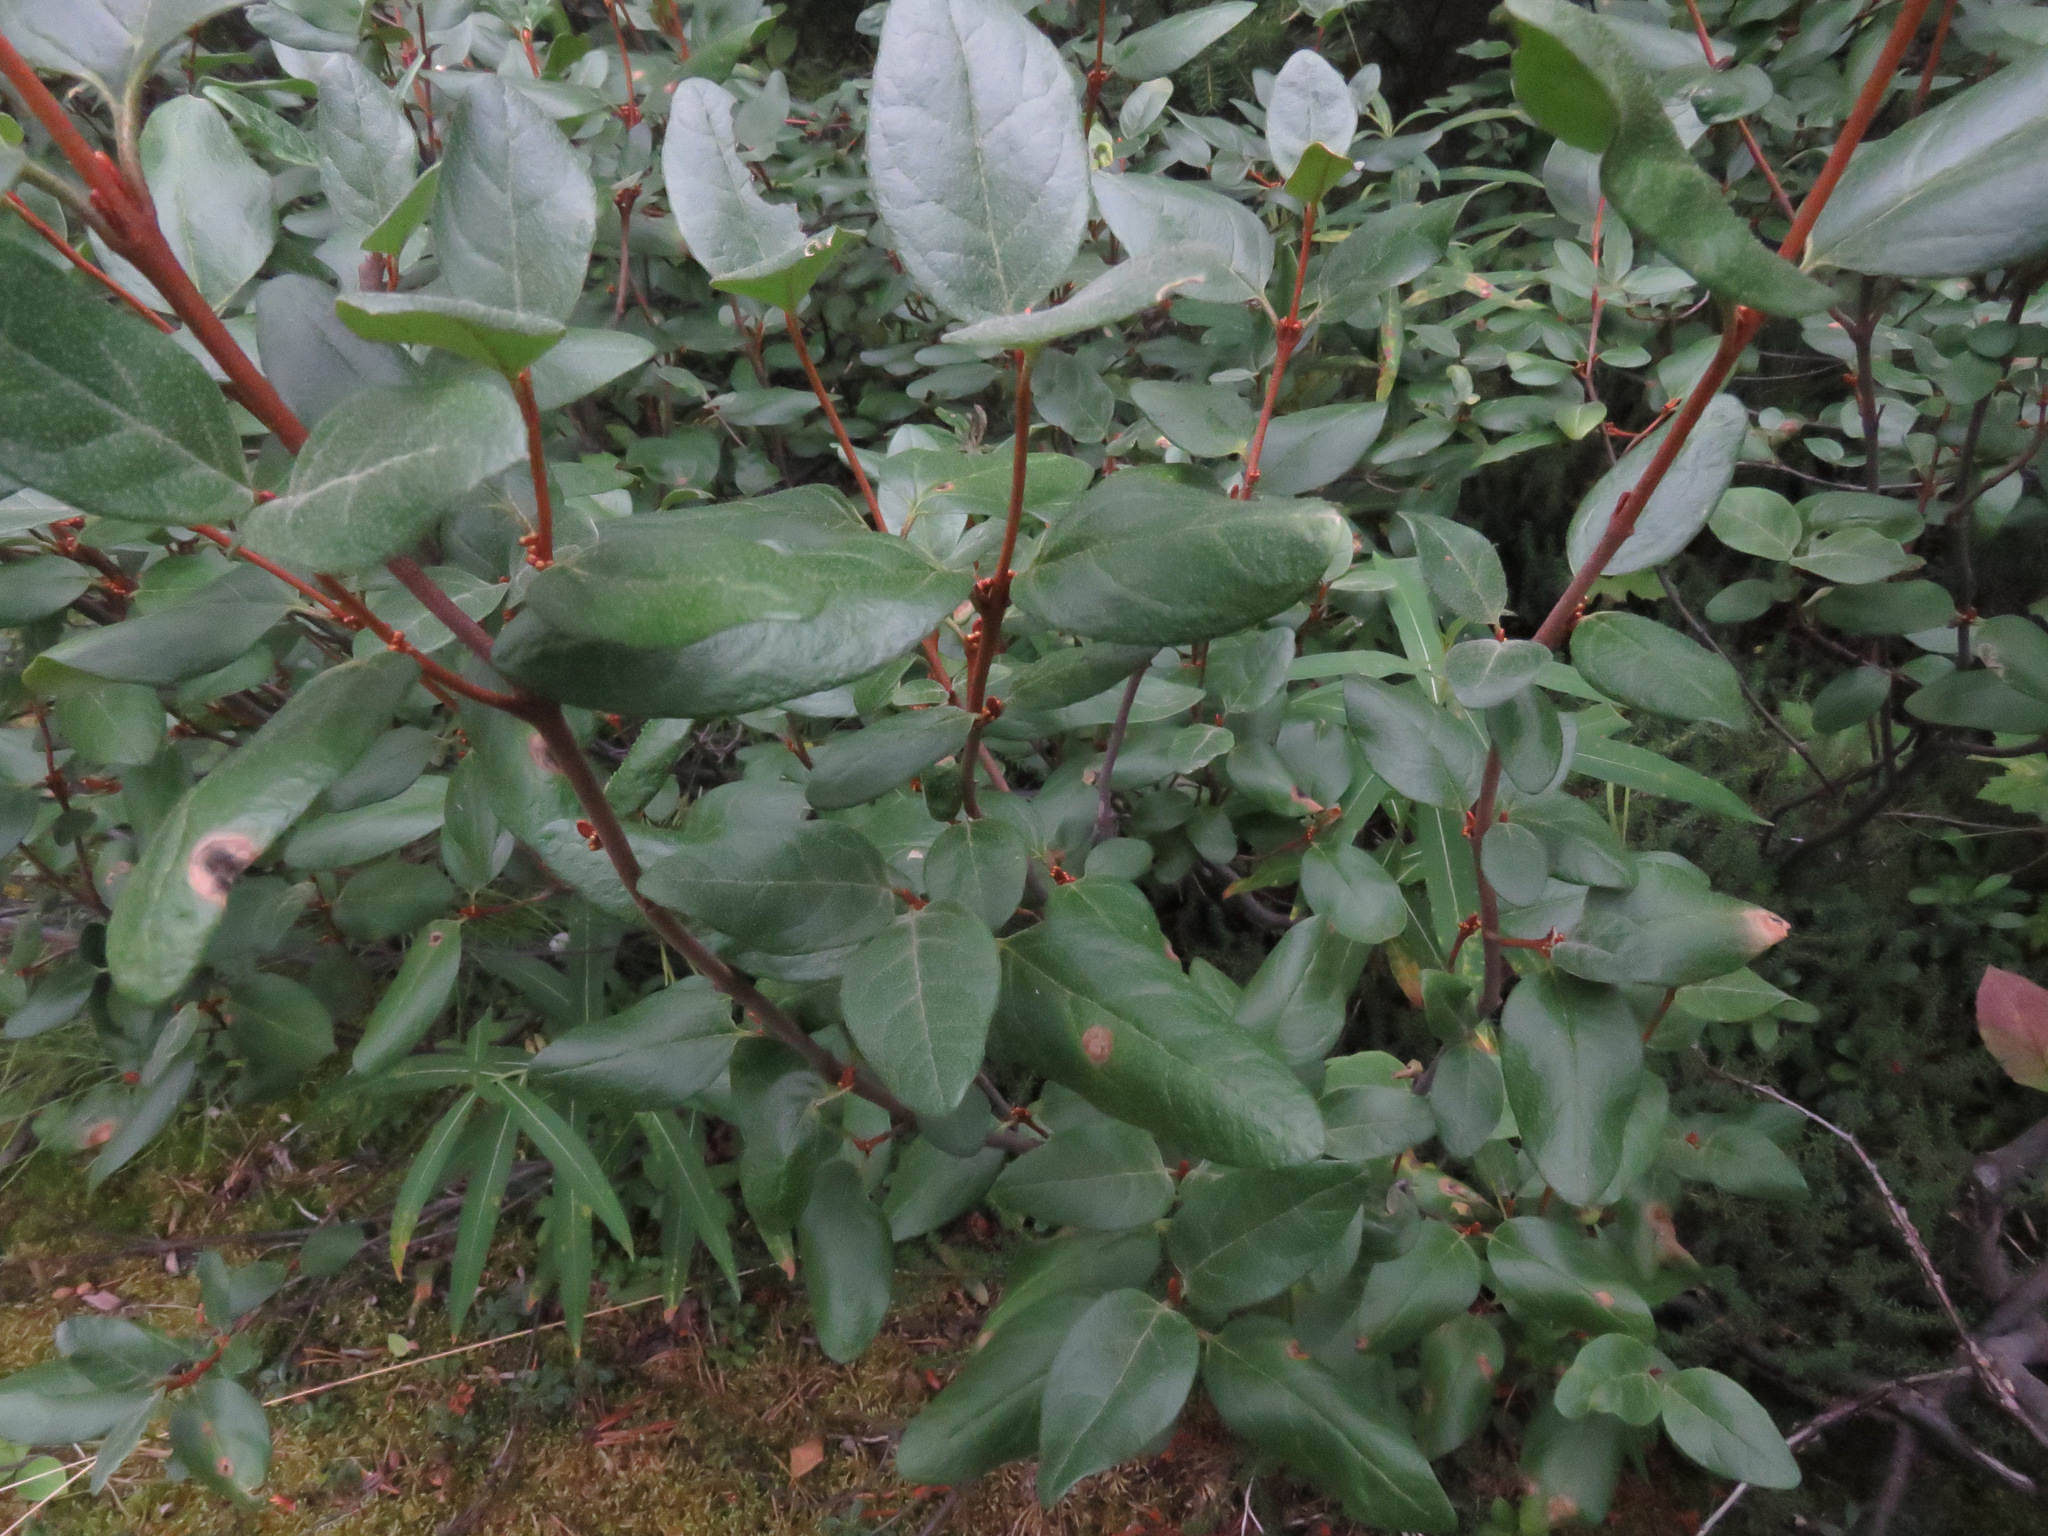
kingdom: Plantae
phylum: Tracheophyta
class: Magnoliopsida
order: Rosales
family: Elaeagnaceae
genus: Shepherdia
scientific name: Shepherdia canadensis
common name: Soapberry
